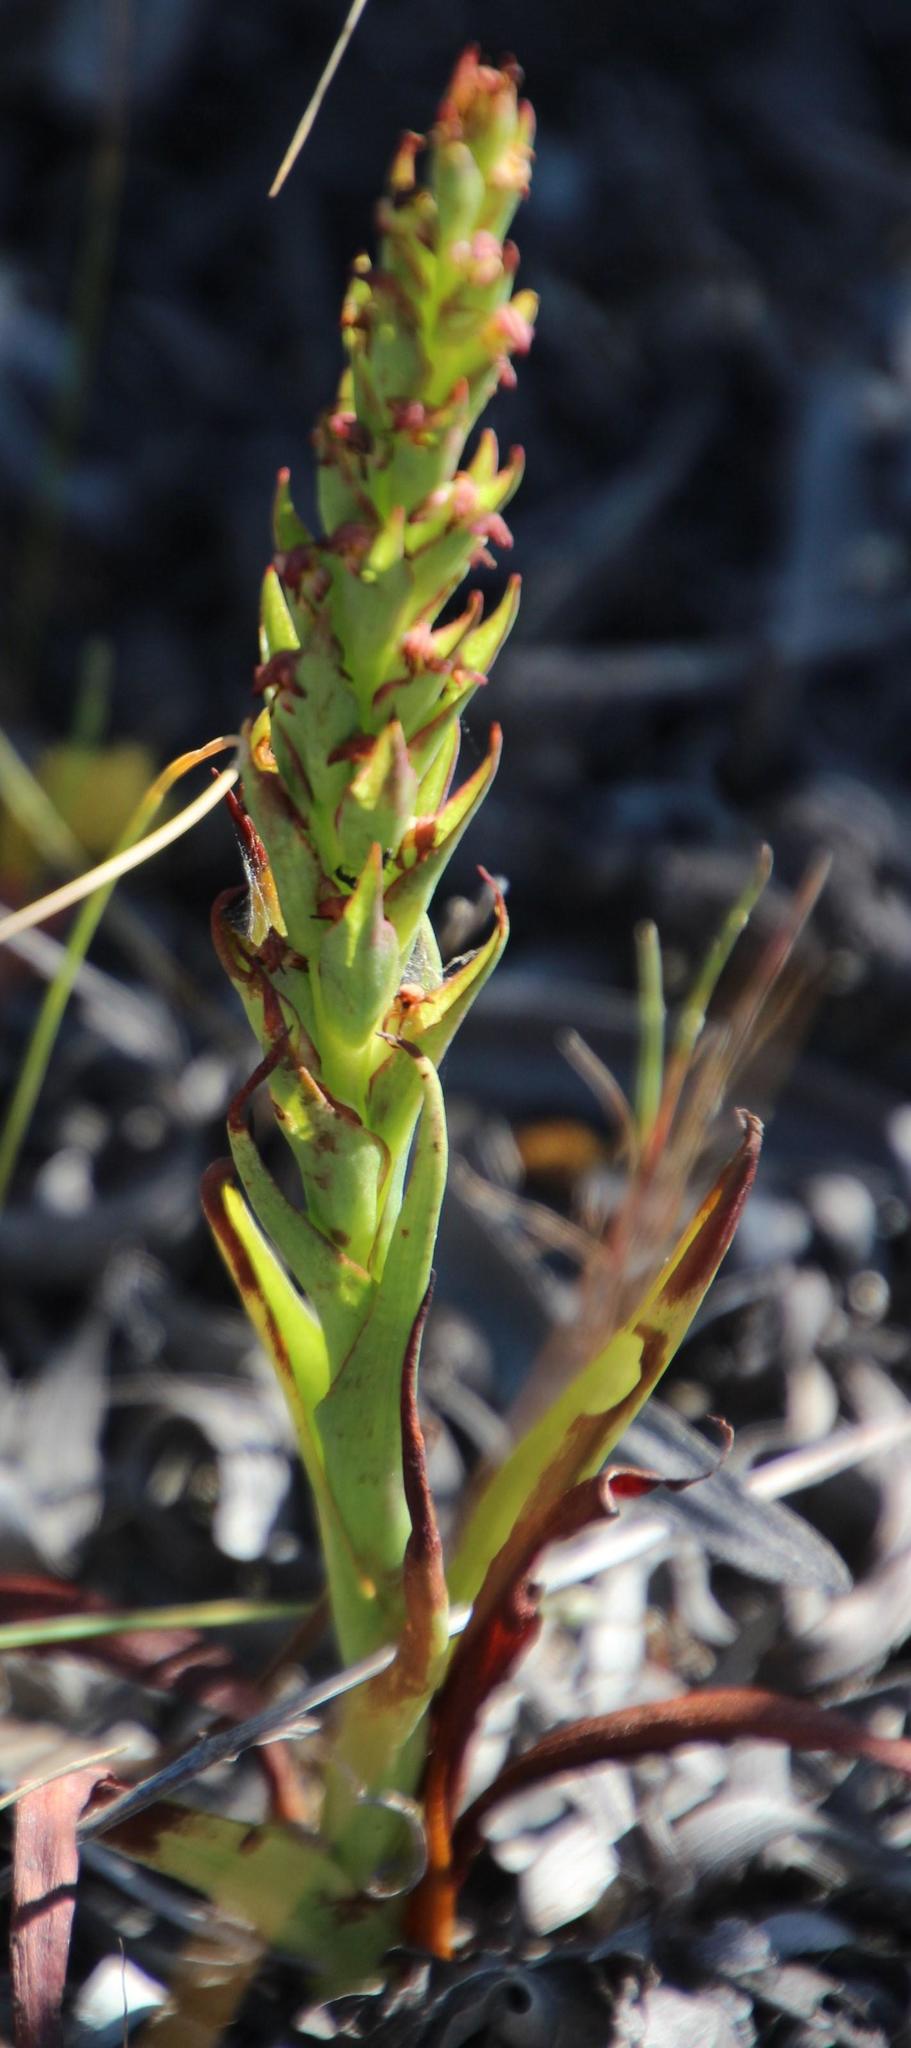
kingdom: Plantae
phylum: Tracheophyta
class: Liliopsida
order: Asparagales
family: Orchidaceae
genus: Disa
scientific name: Disa bracteata
